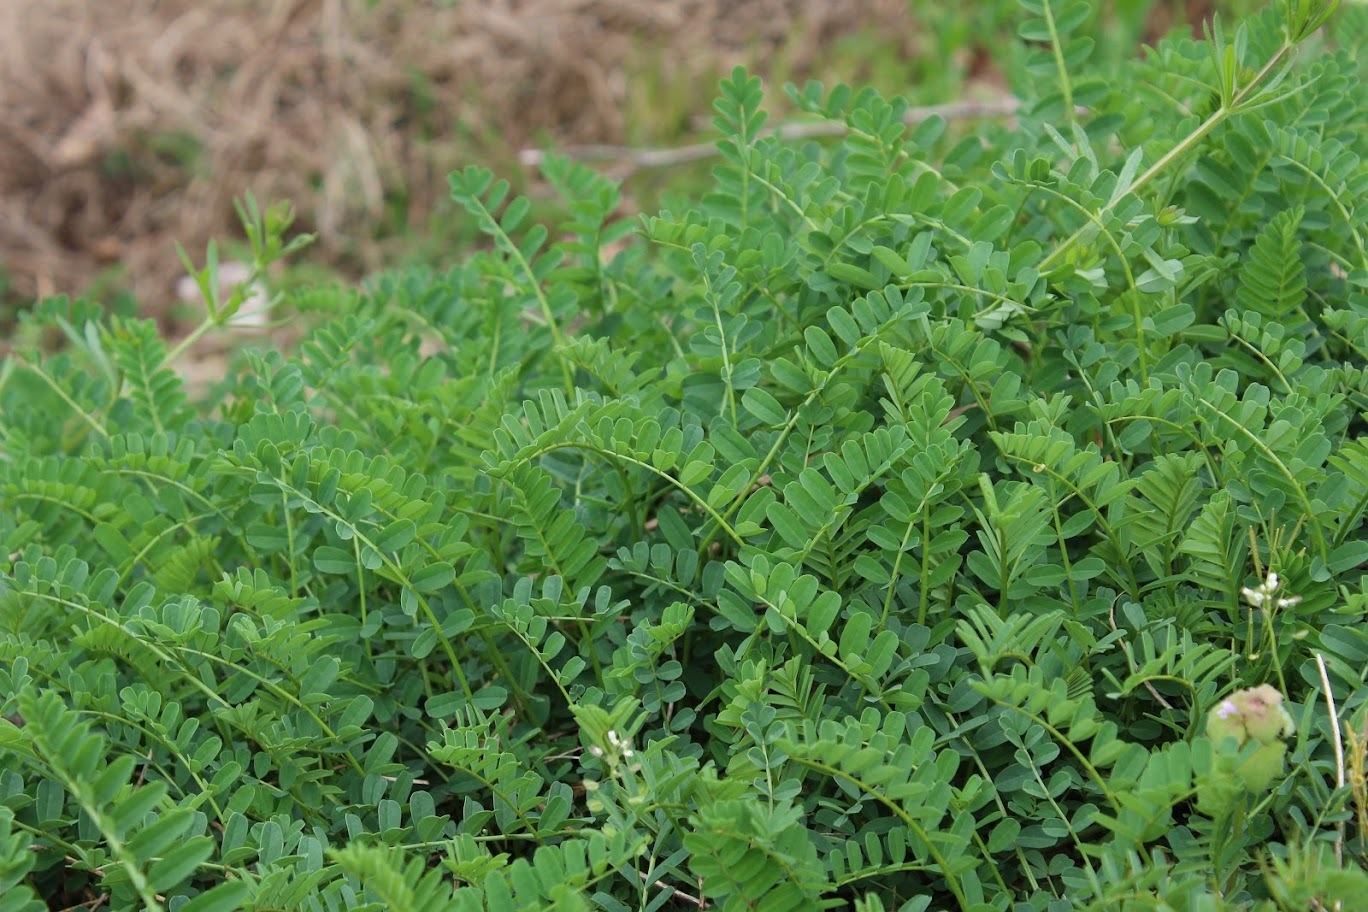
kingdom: Plantae
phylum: Tracheophyta
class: Magnoliopsida
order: Fabales
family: Fabaceae
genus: Coronilla
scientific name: Coronilla varia
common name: Crownvetch
